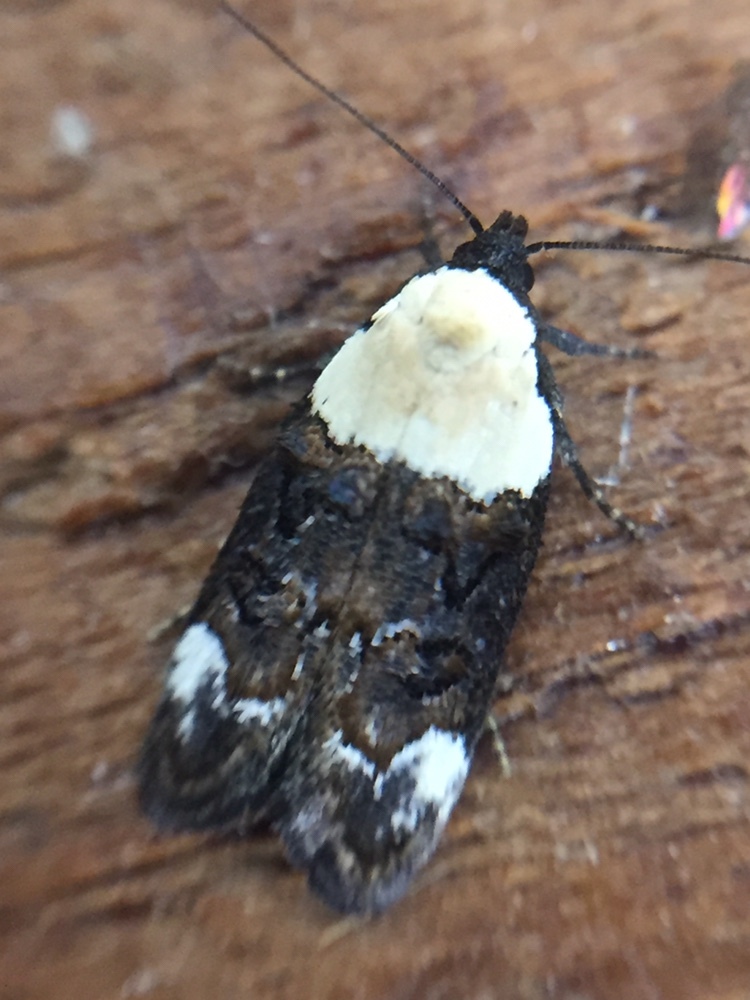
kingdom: Animalia
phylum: Arthropoda
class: Insecta
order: Lepidoptera
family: Oecophoridae
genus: Trachypepla
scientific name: Trachypepla euryleucota
